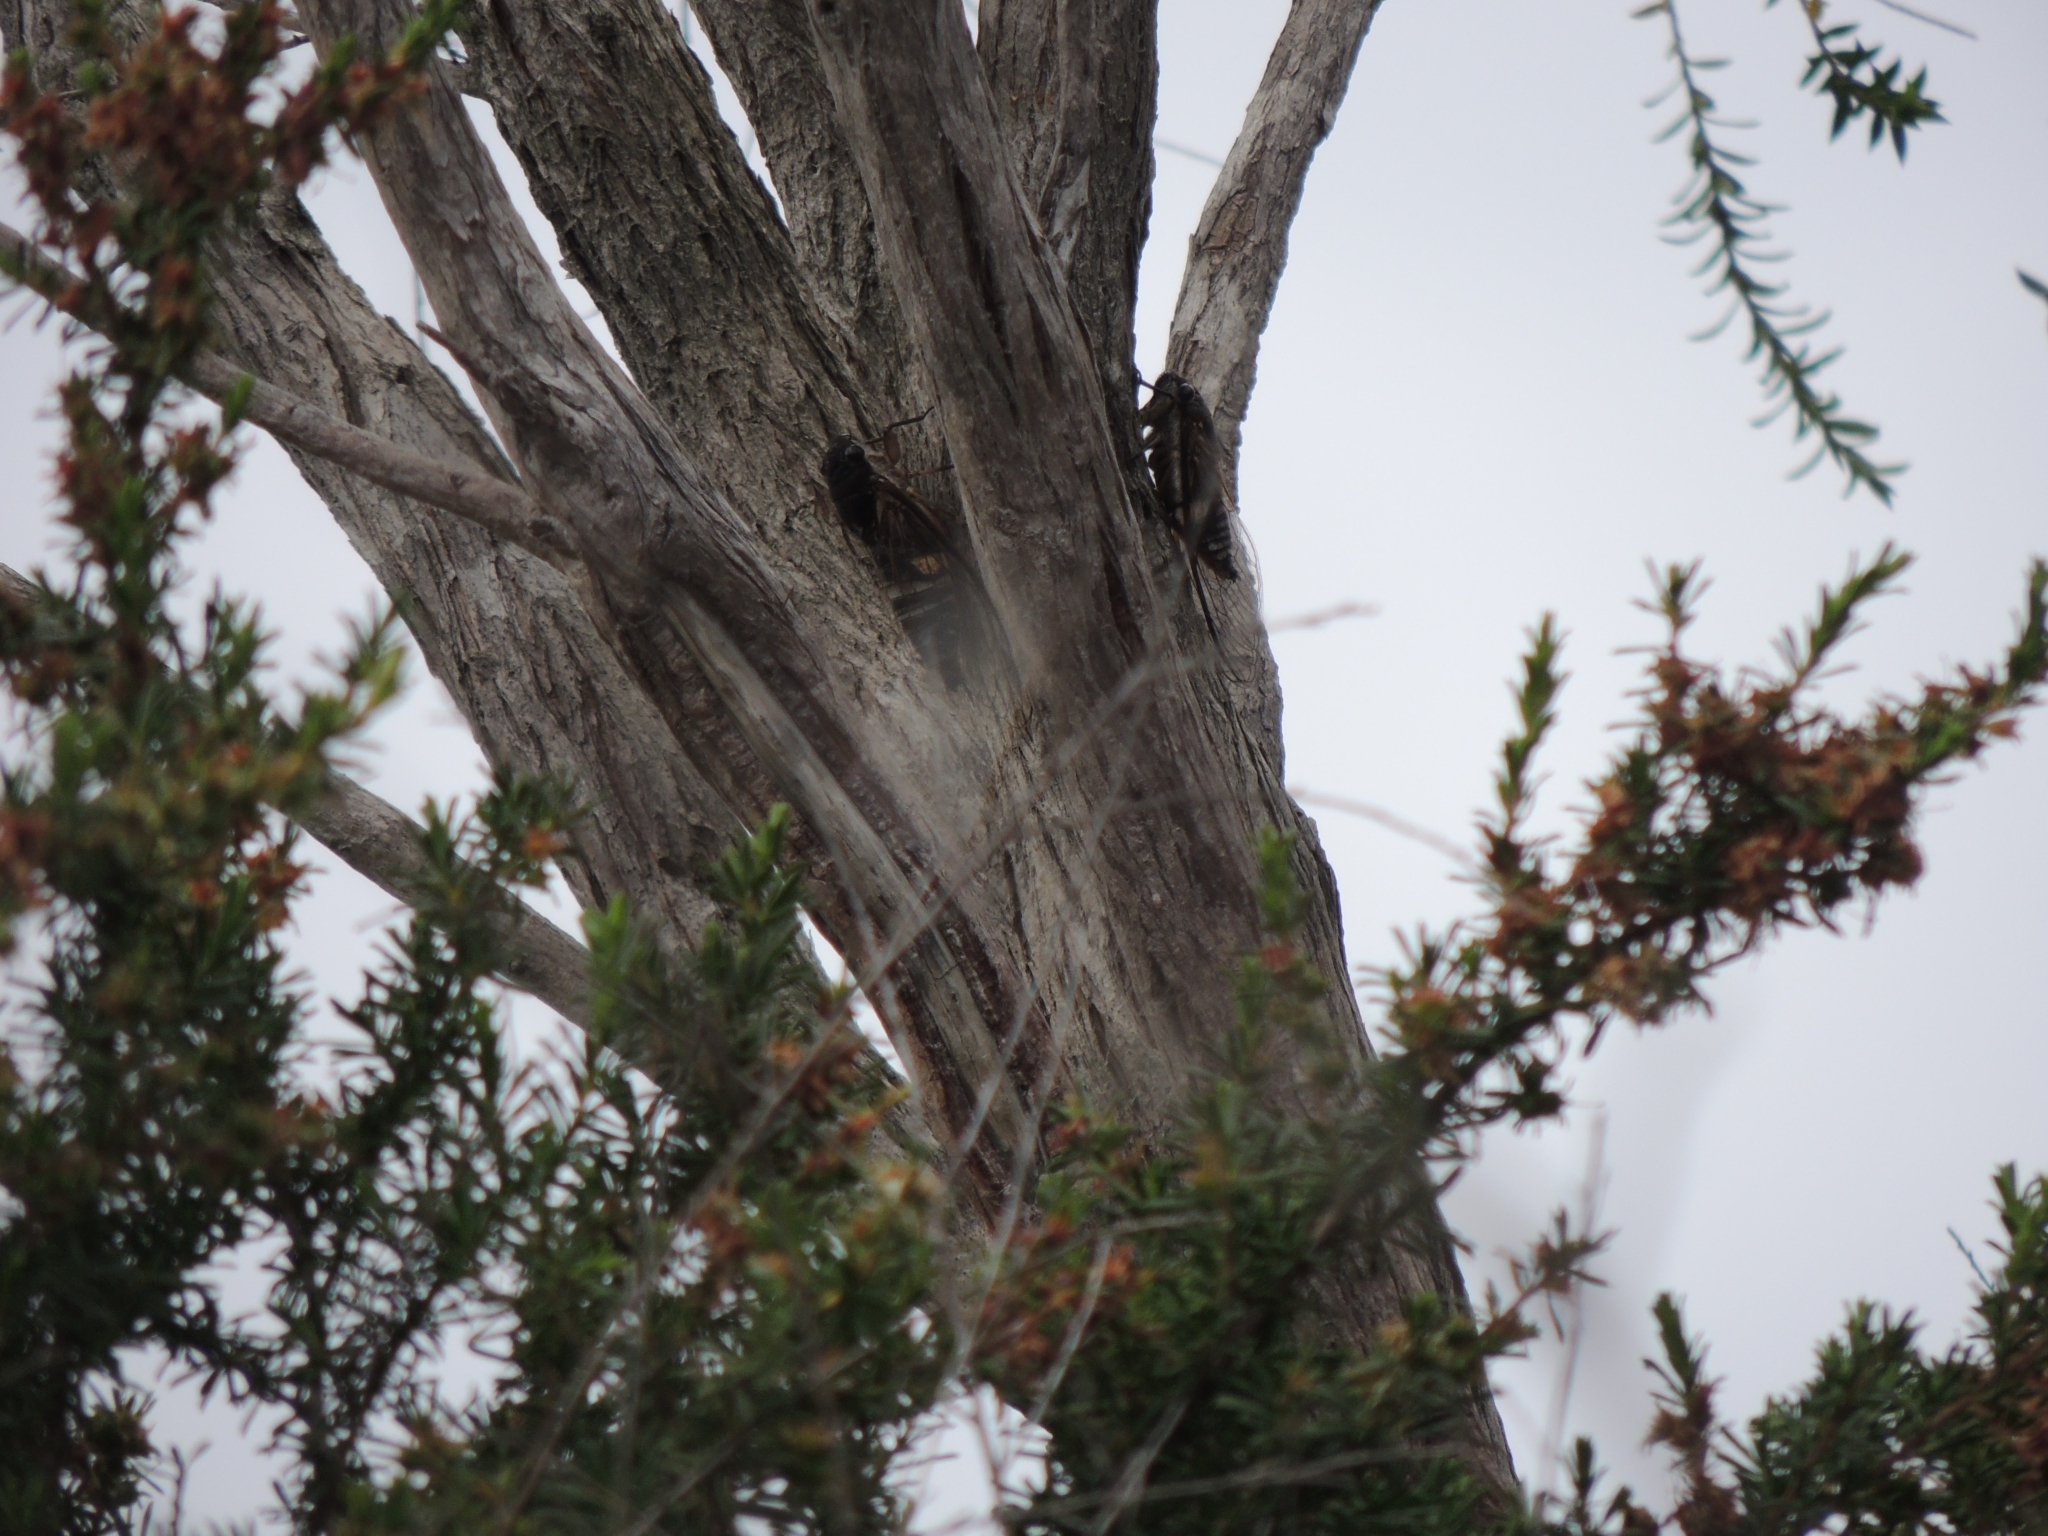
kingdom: Animalia
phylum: Arthropoda
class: Insecta
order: Hemiptera
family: Cicadidae
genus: Psaltoda
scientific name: Psaltoda harrisii
